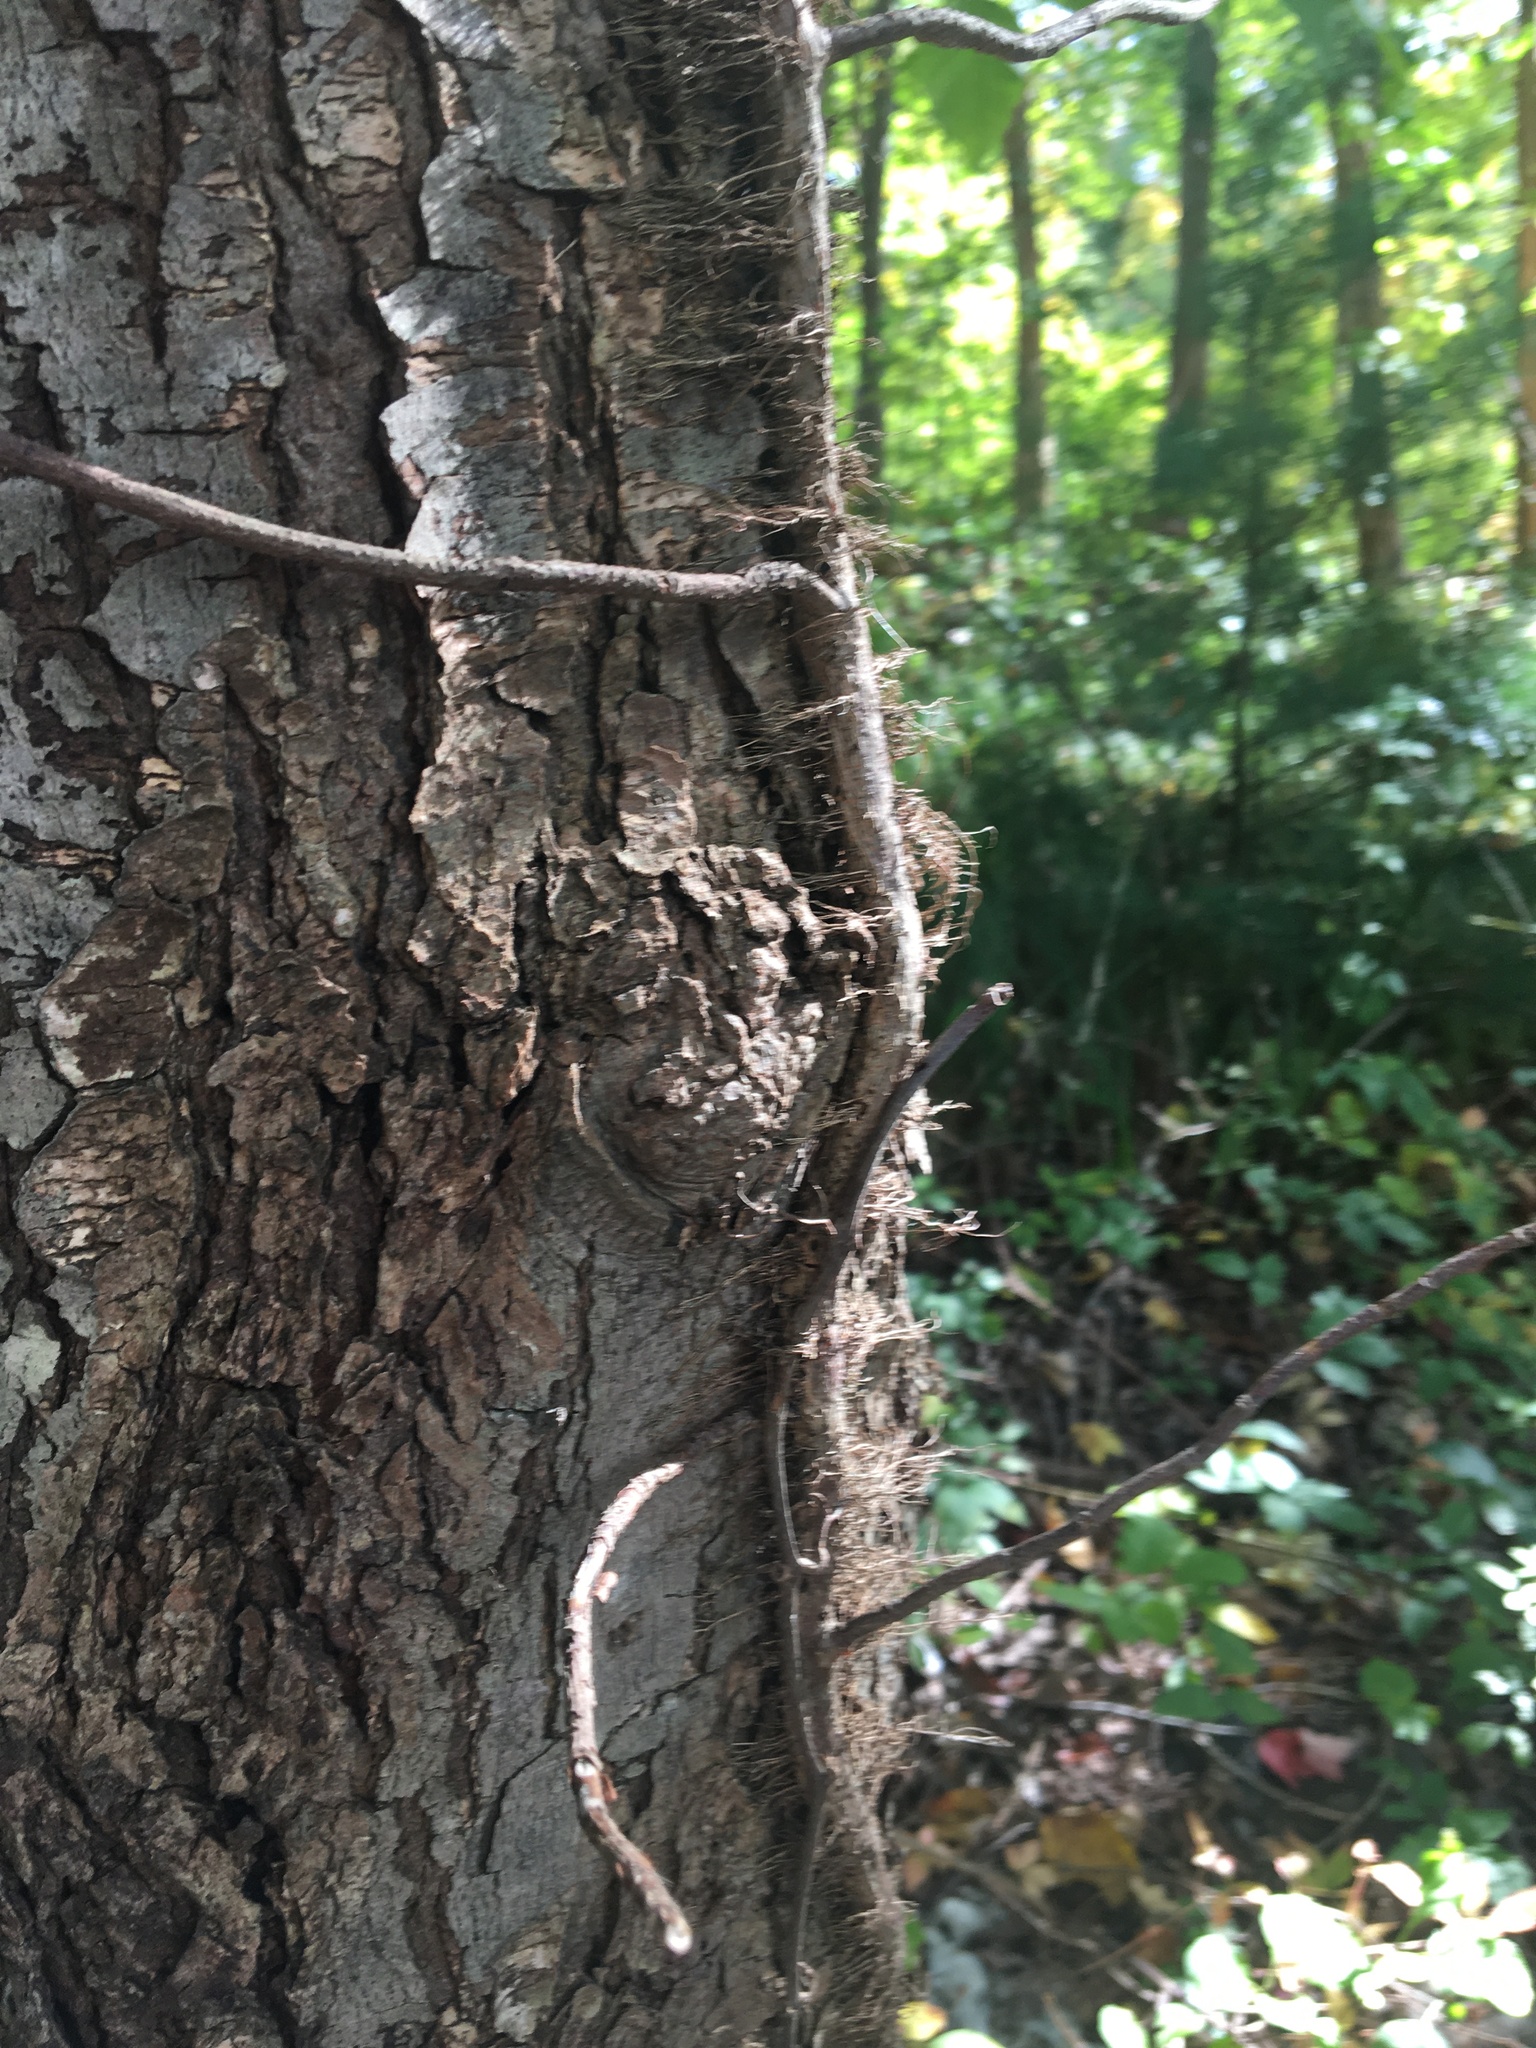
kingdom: Plantae
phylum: Tracheophyta
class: Magnoliopsida
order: Sapindales
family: Anacardiaceae
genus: Toxicodendron
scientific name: Toxicodendron radicans
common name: Poison ivy
